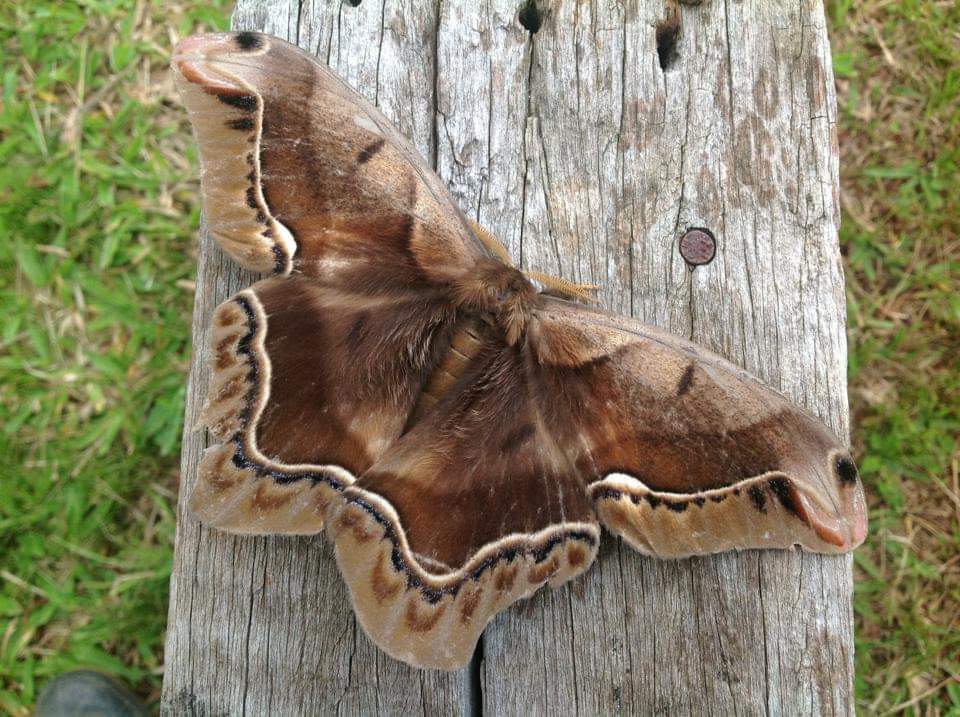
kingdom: Animalia
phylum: Arthropoda
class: Insecta
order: Lepidoptera
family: Saturniidae
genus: Arsenura
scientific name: Arsenura biundulata
